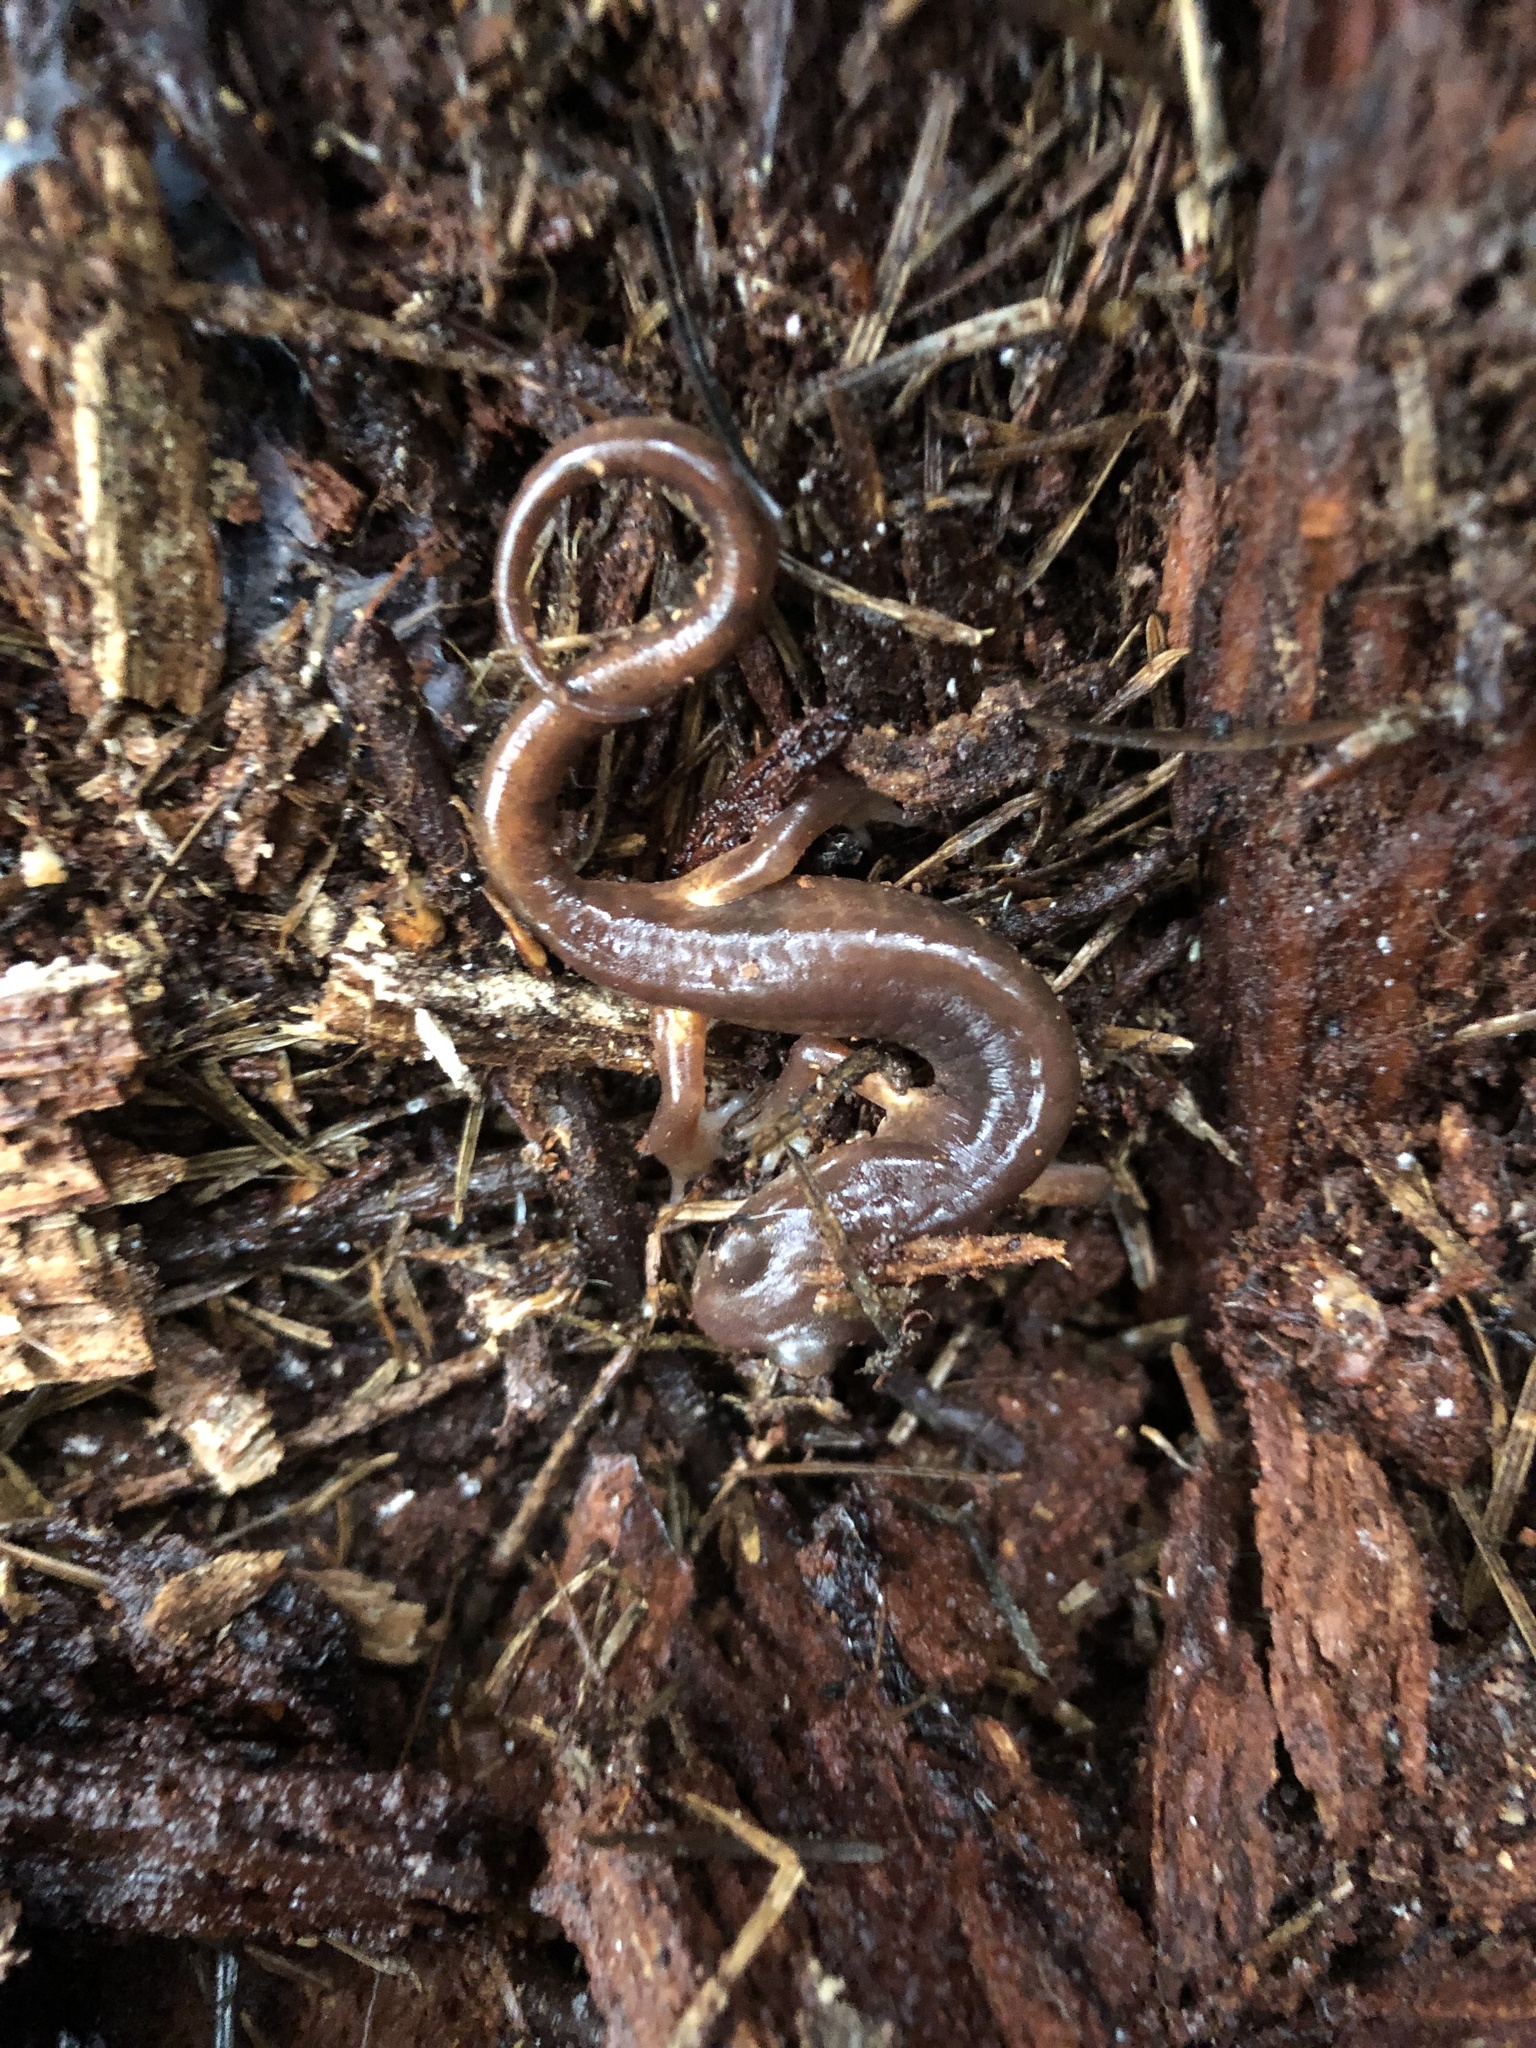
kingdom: Animalia
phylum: Chordata
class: Amphibia
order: Caudata
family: Plethodontidae
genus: Ensatina
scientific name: Ensatina eschscholtzii
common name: Ensatina
